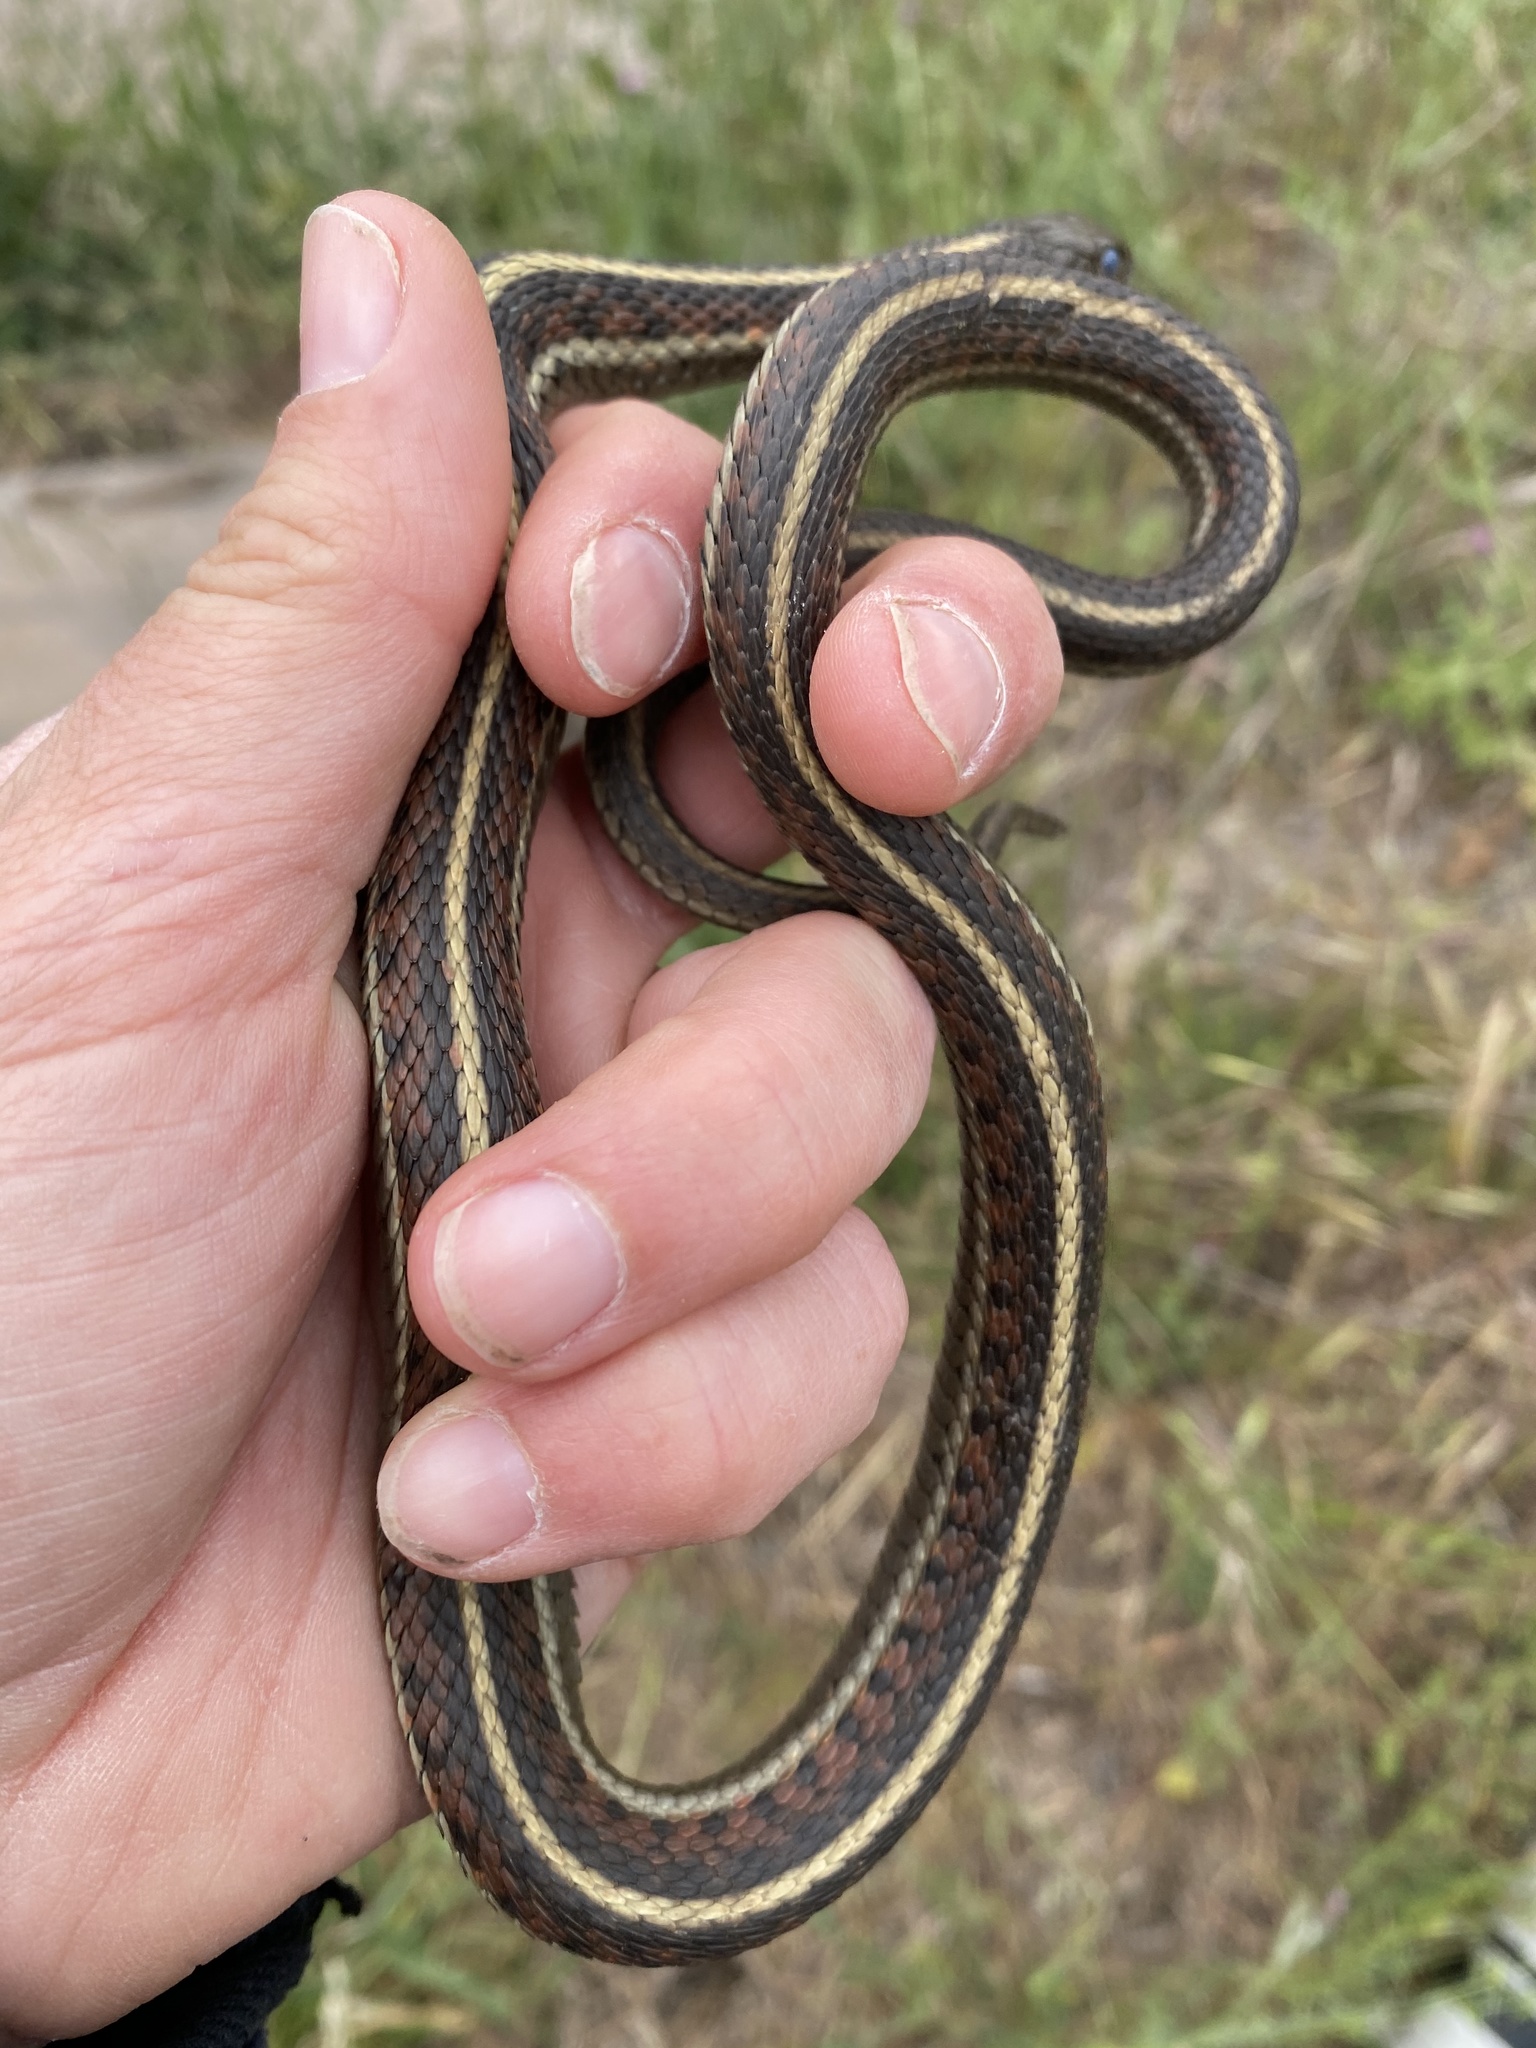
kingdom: Animalia
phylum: Chordata
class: Squamata
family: Colubridae
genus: Thamnophis
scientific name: Thamnophis elegans
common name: Western terrestrial garter snake
